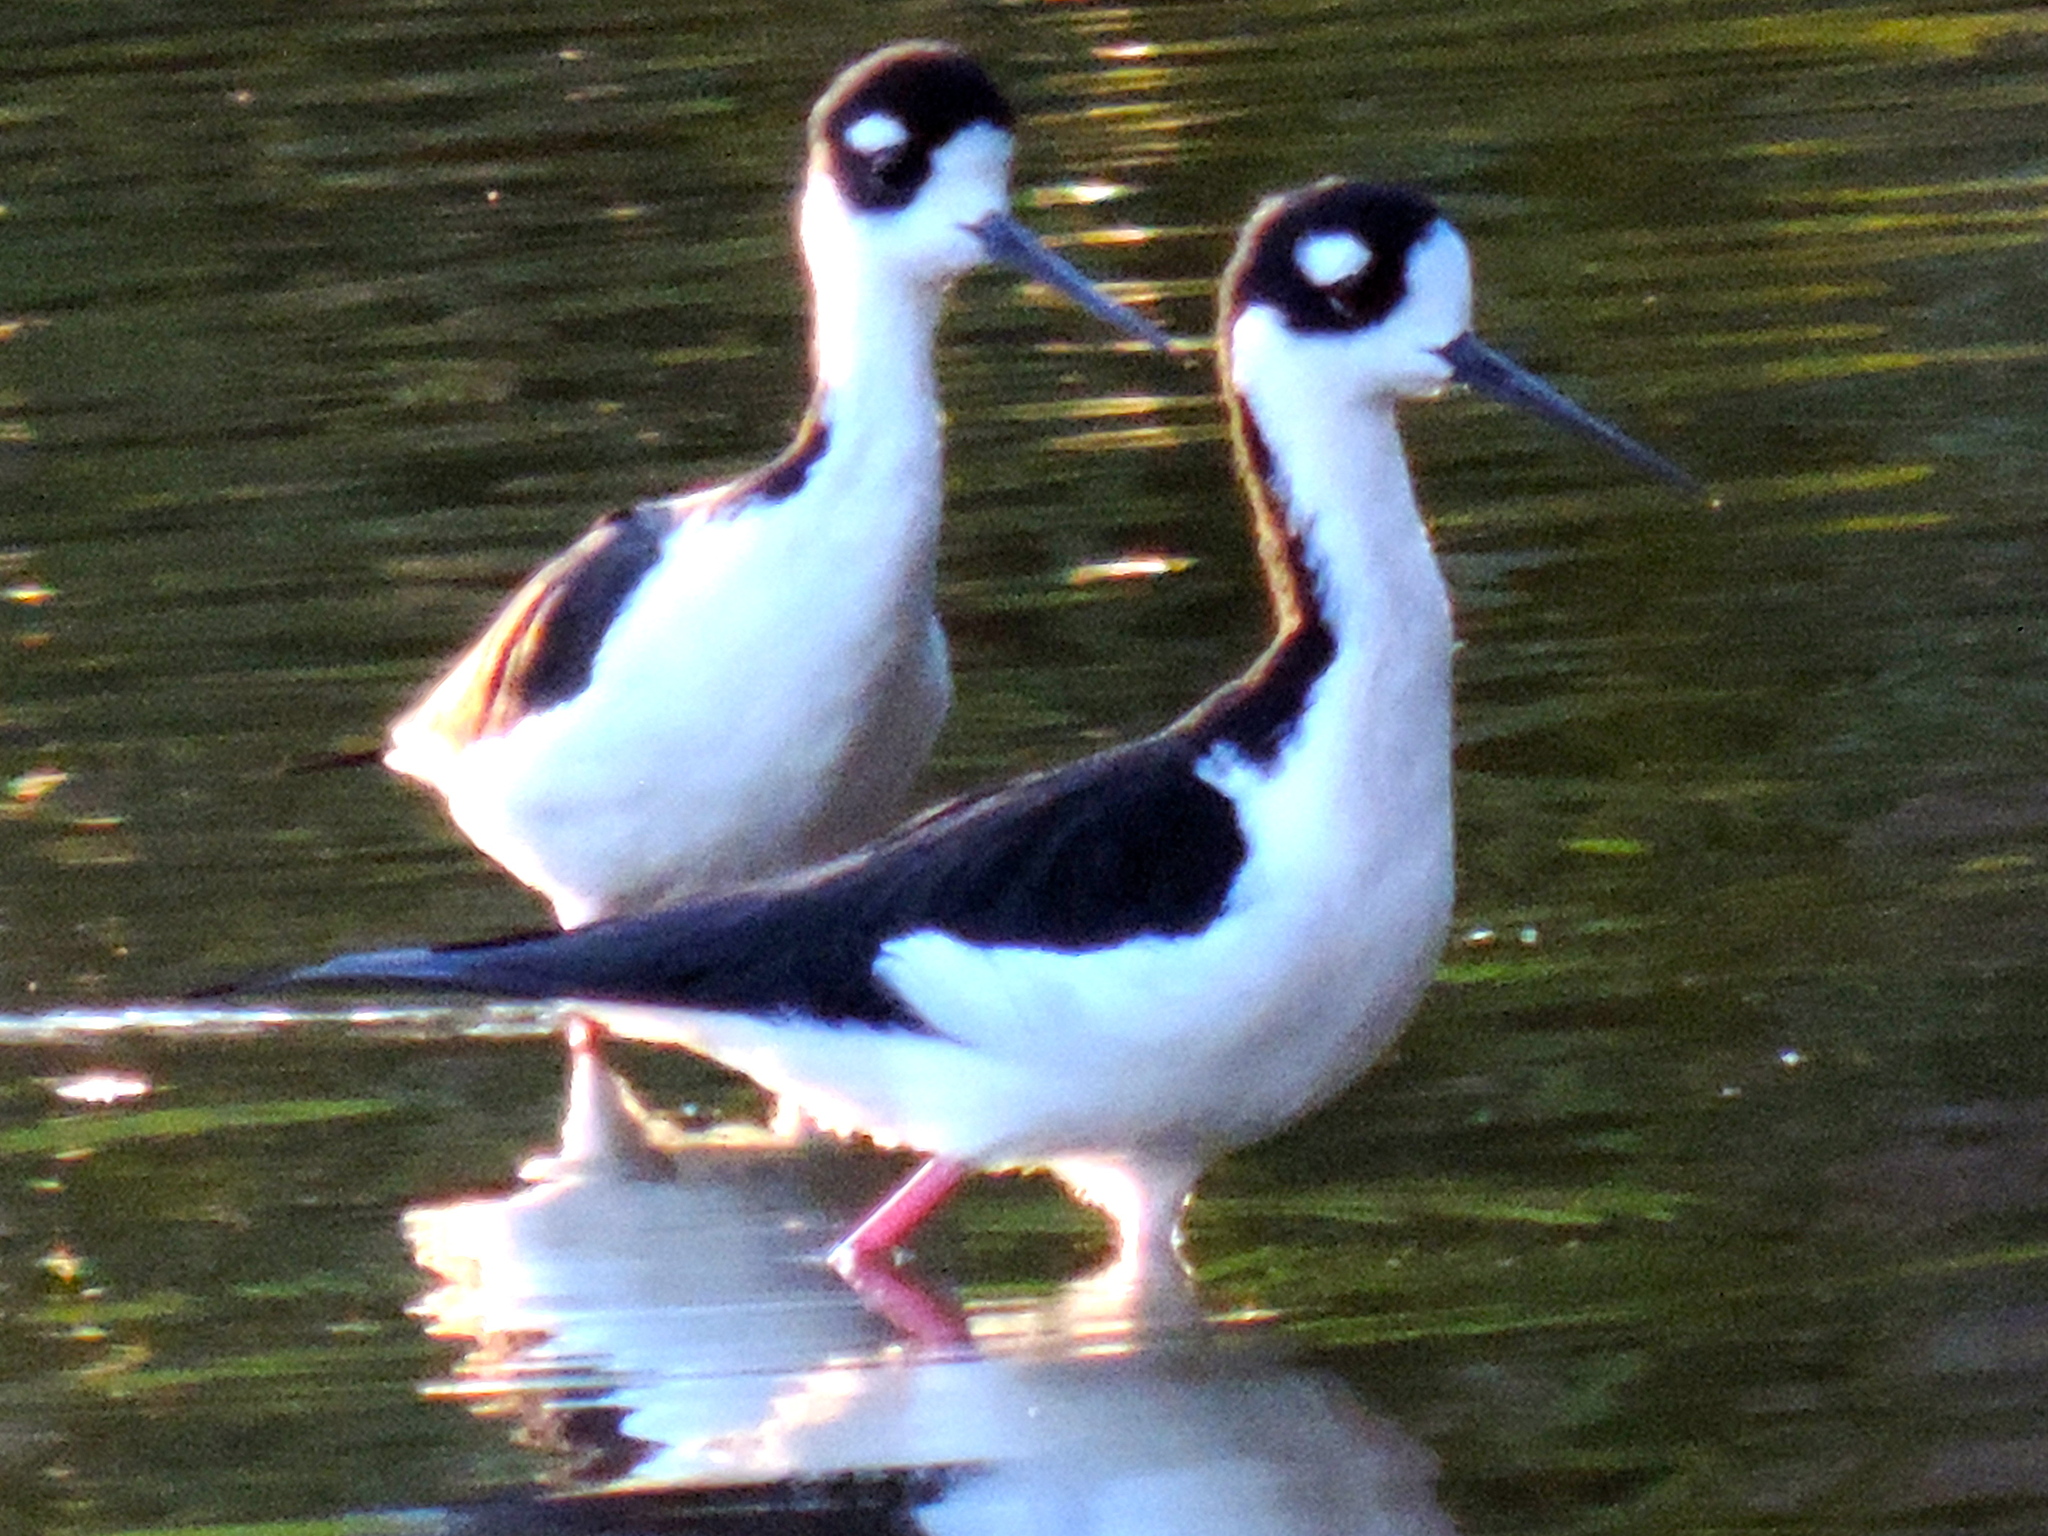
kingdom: Animalia
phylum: Chordata
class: Aves
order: Charadriiformes
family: Recurvirostridae
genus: Himantopus
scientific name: Himantopus mexicanus
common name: Black-necked stilt
